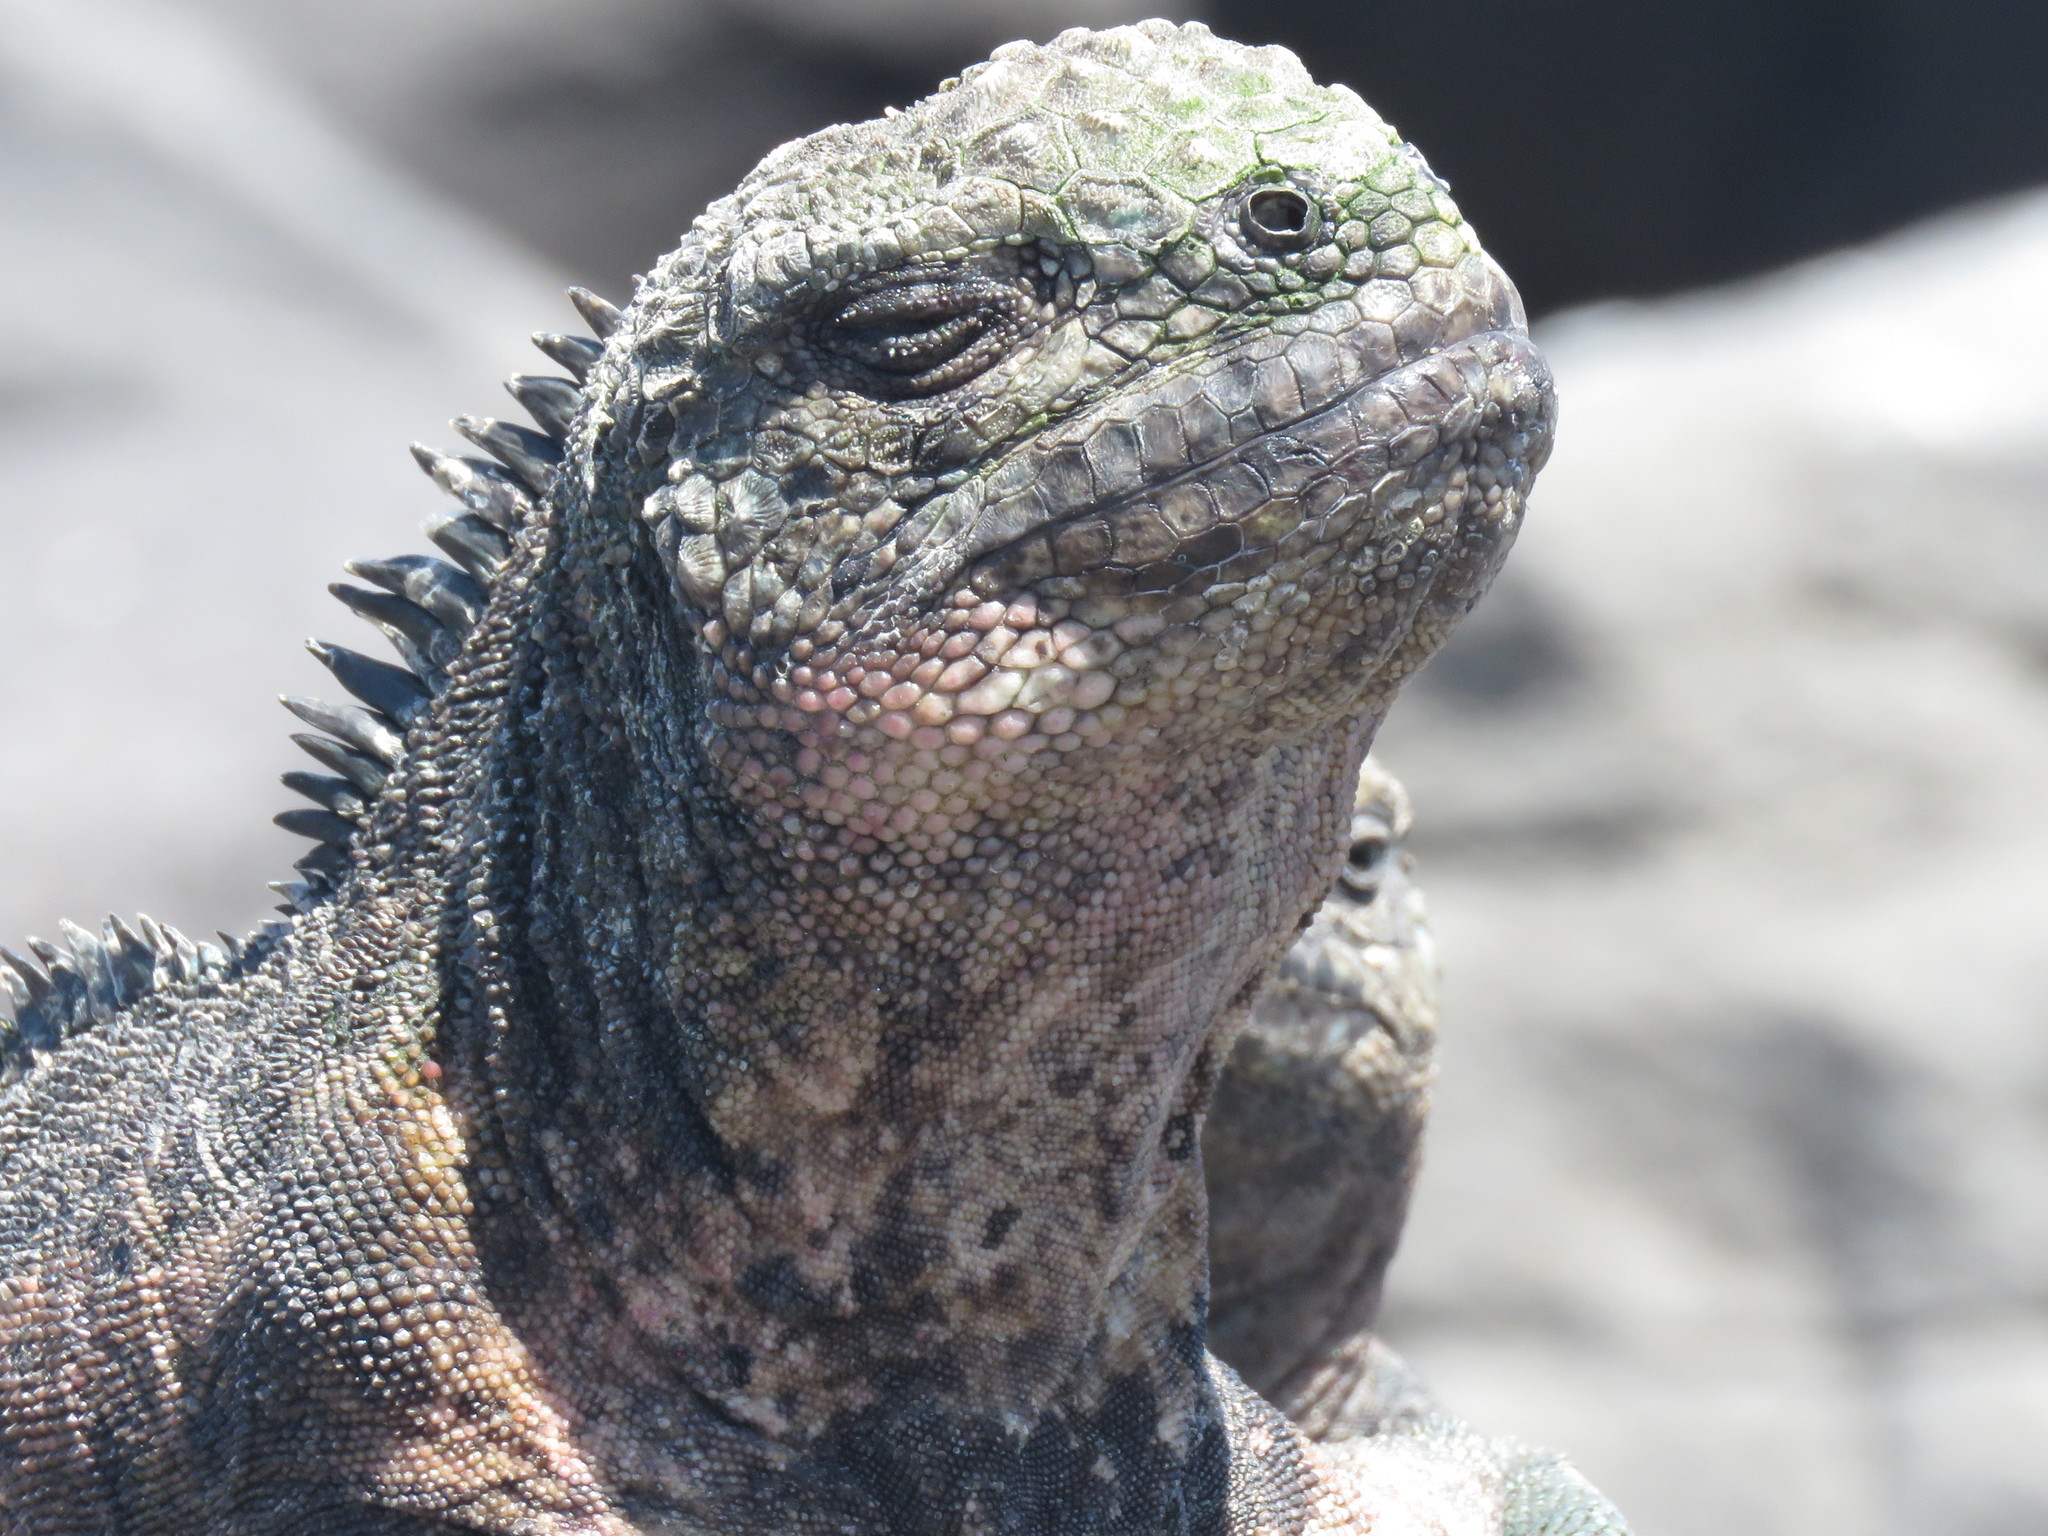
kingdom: Animalia
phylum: Chordata
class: Squamata
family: Iguanidae
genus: Amblyrhynchus
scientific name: Amblyrhynchus cristatus
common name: Marine iguana
